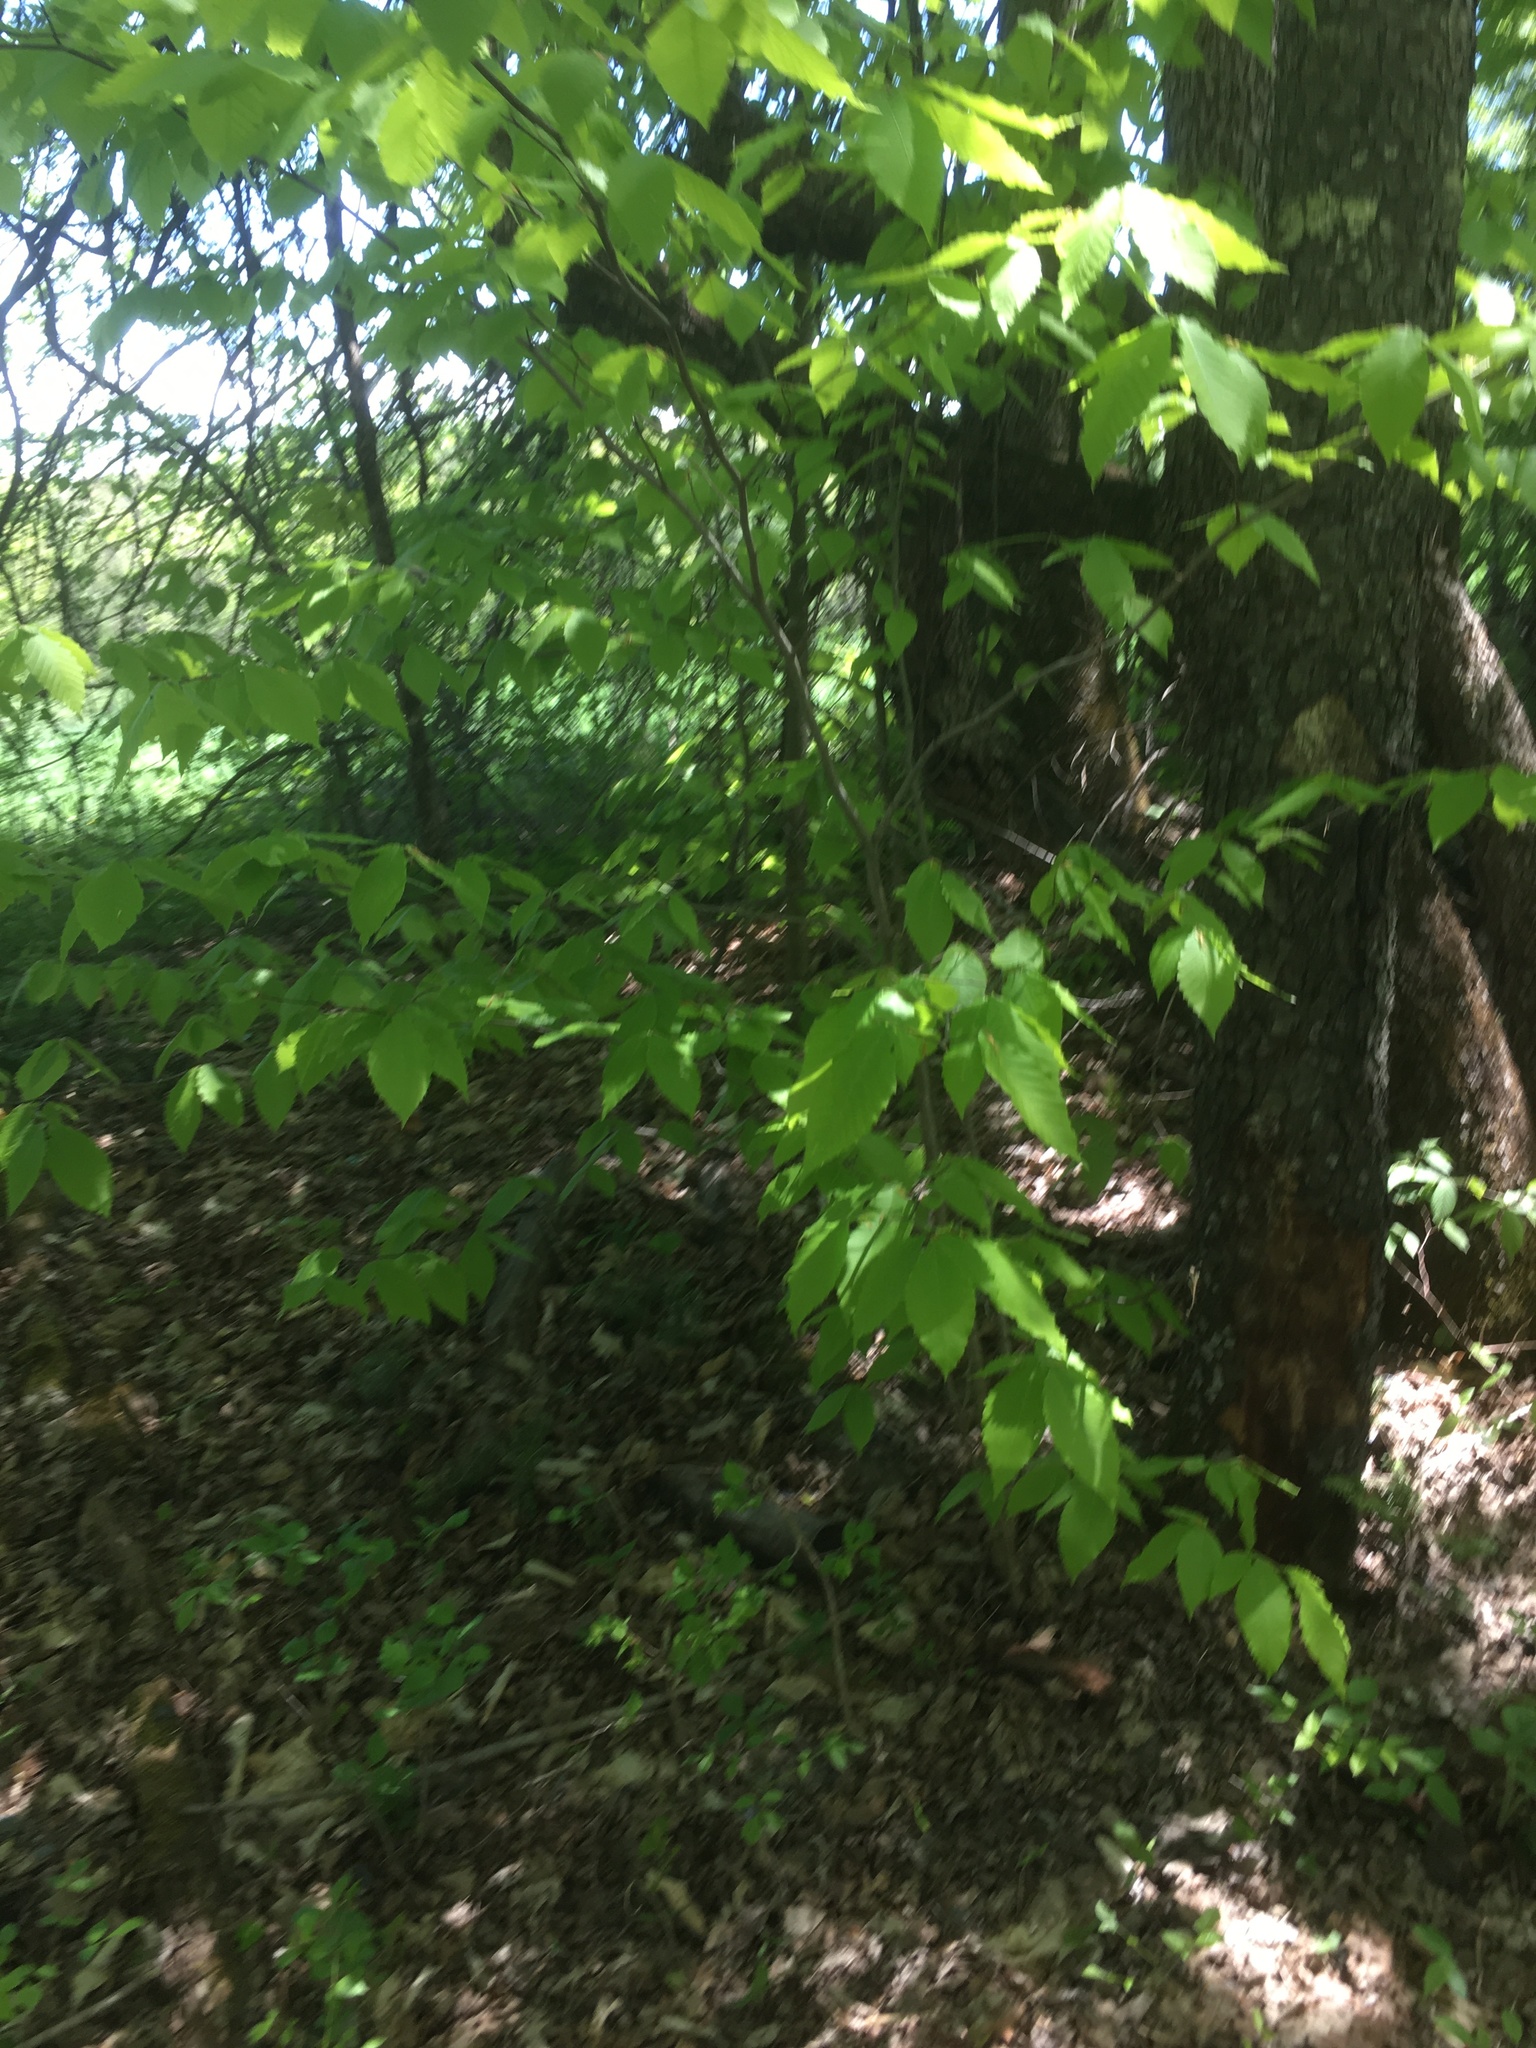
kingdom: Plantae
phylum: Tracheophyta
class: Magnoliopsida
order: Fagales
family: Fagaceae
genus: Fagus
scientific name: Fagus grandifolia
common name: American beech
